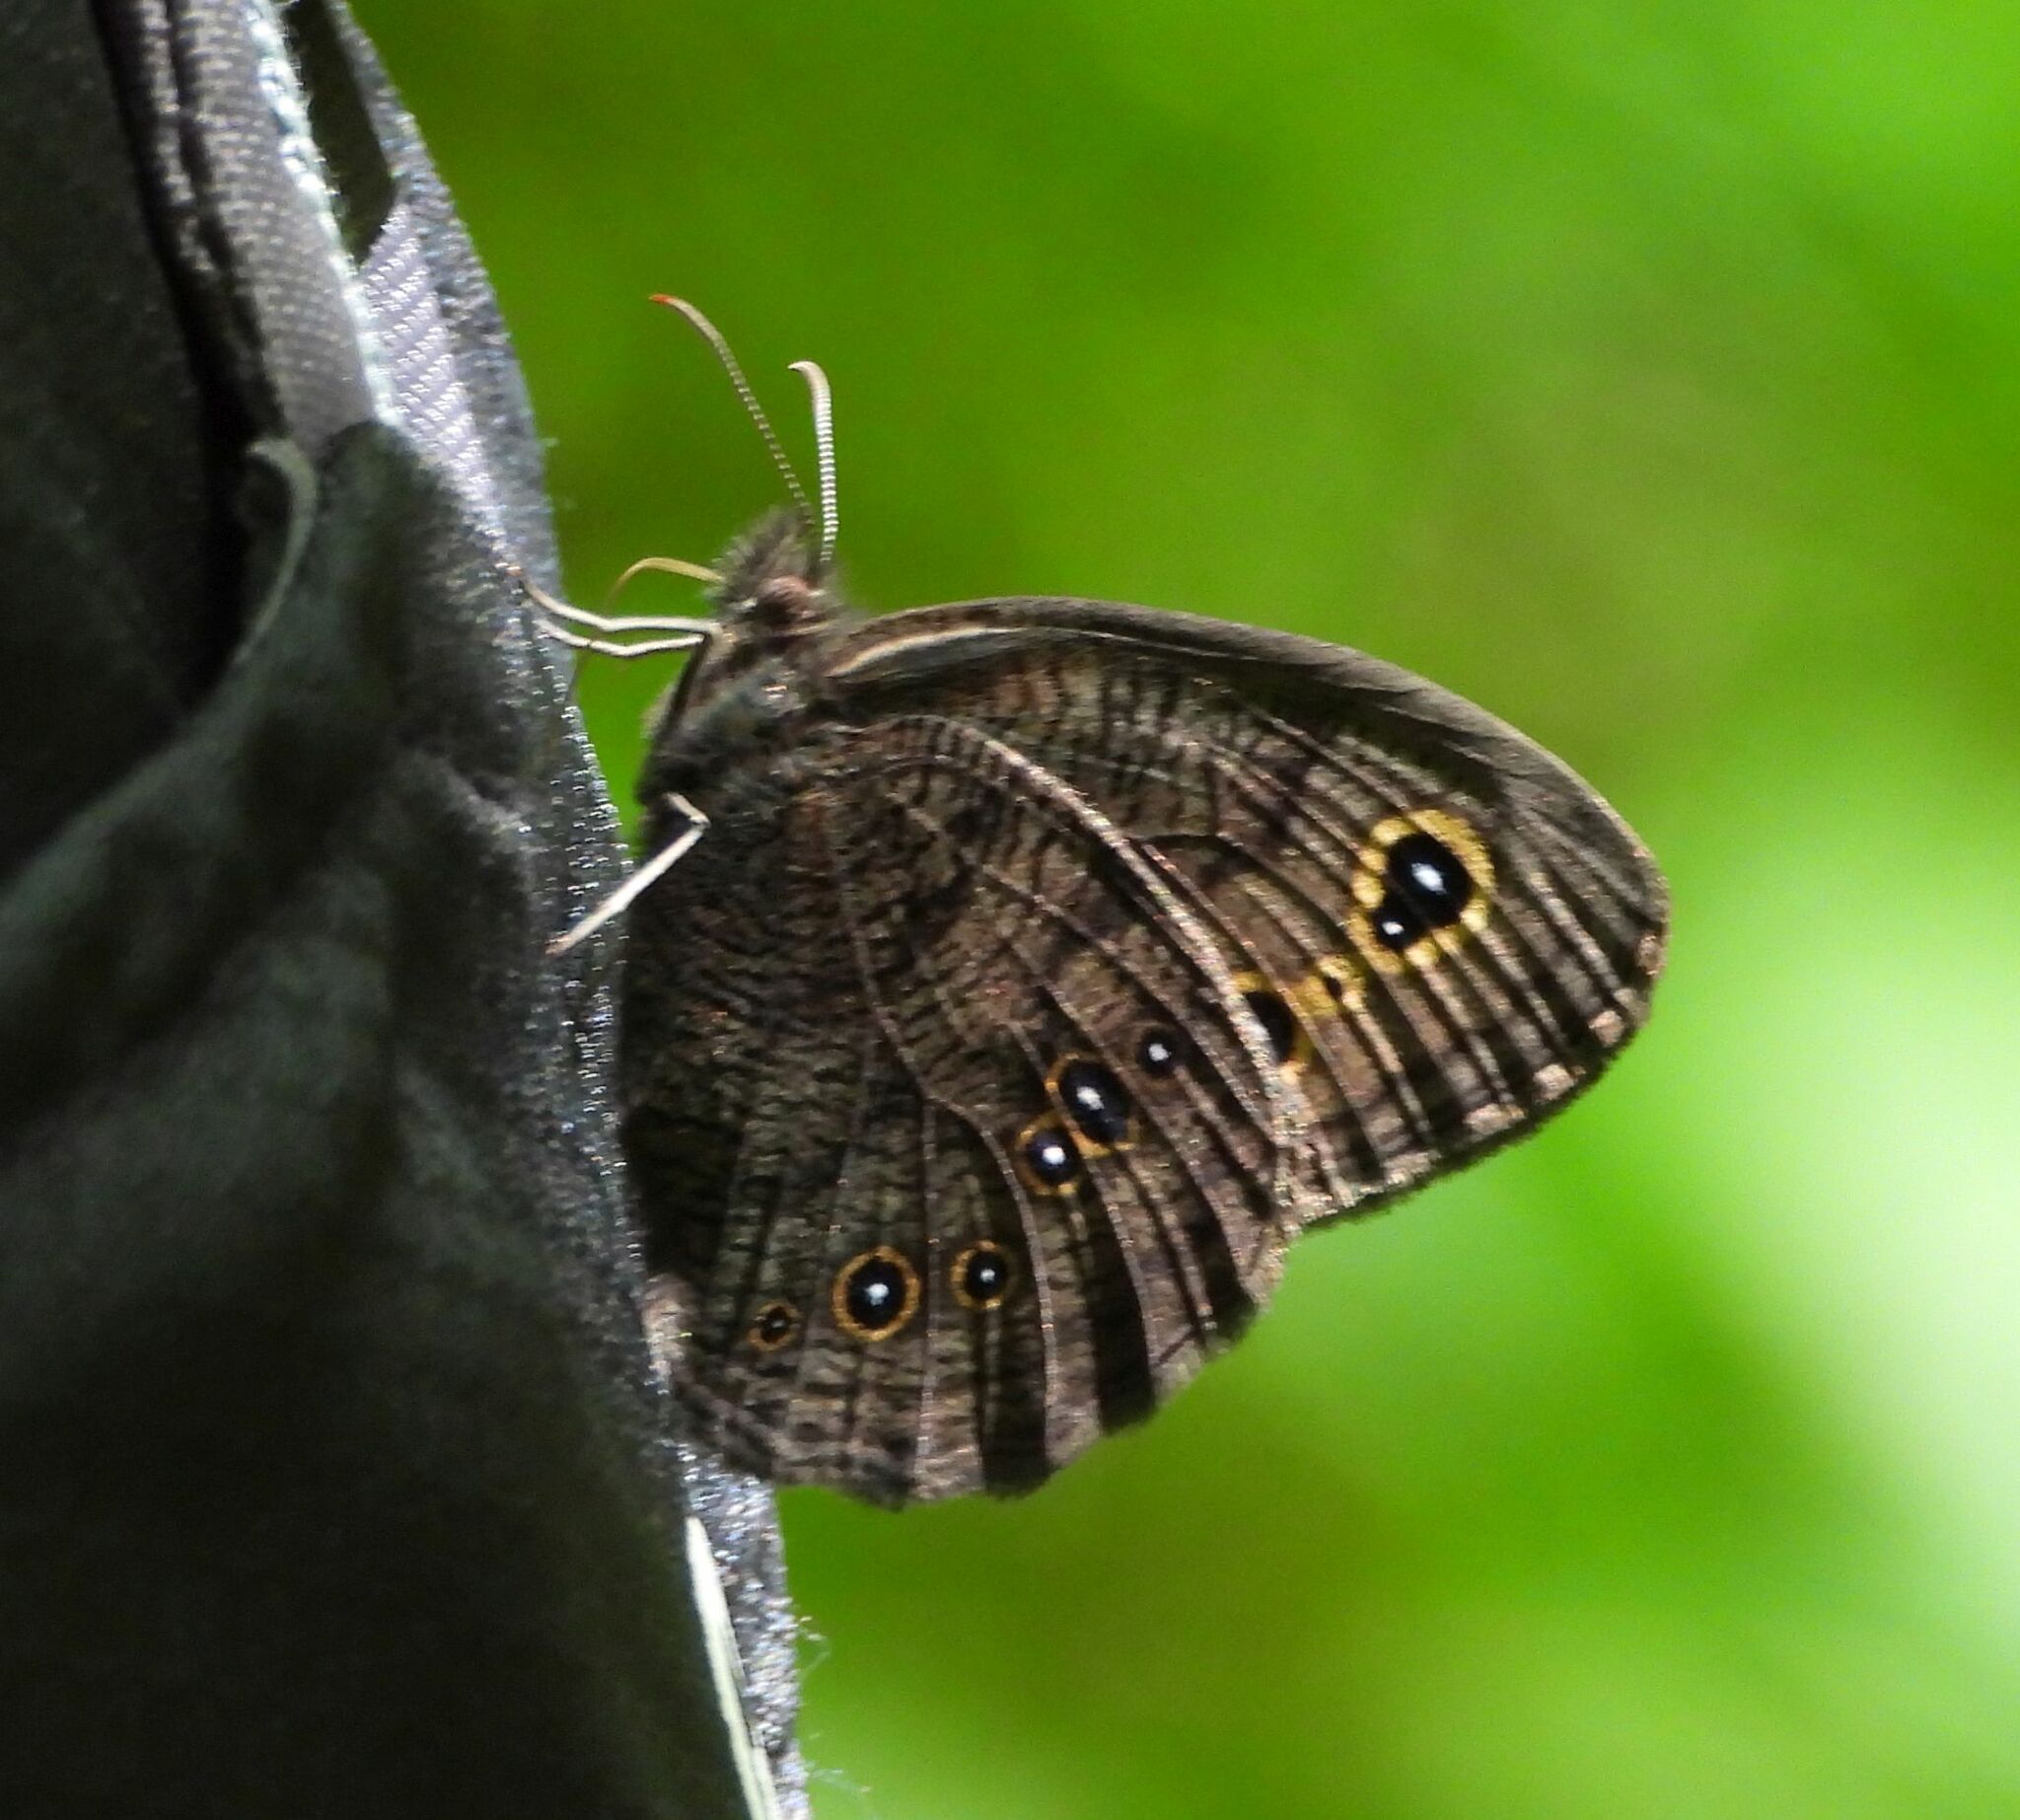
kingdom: Animalia
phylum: Arthropoda
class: Insecta
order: Lepidoptera
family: Nymphalidae
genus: Cercyonis
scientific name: Cercyonis pegala
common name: Common wood-nymph
